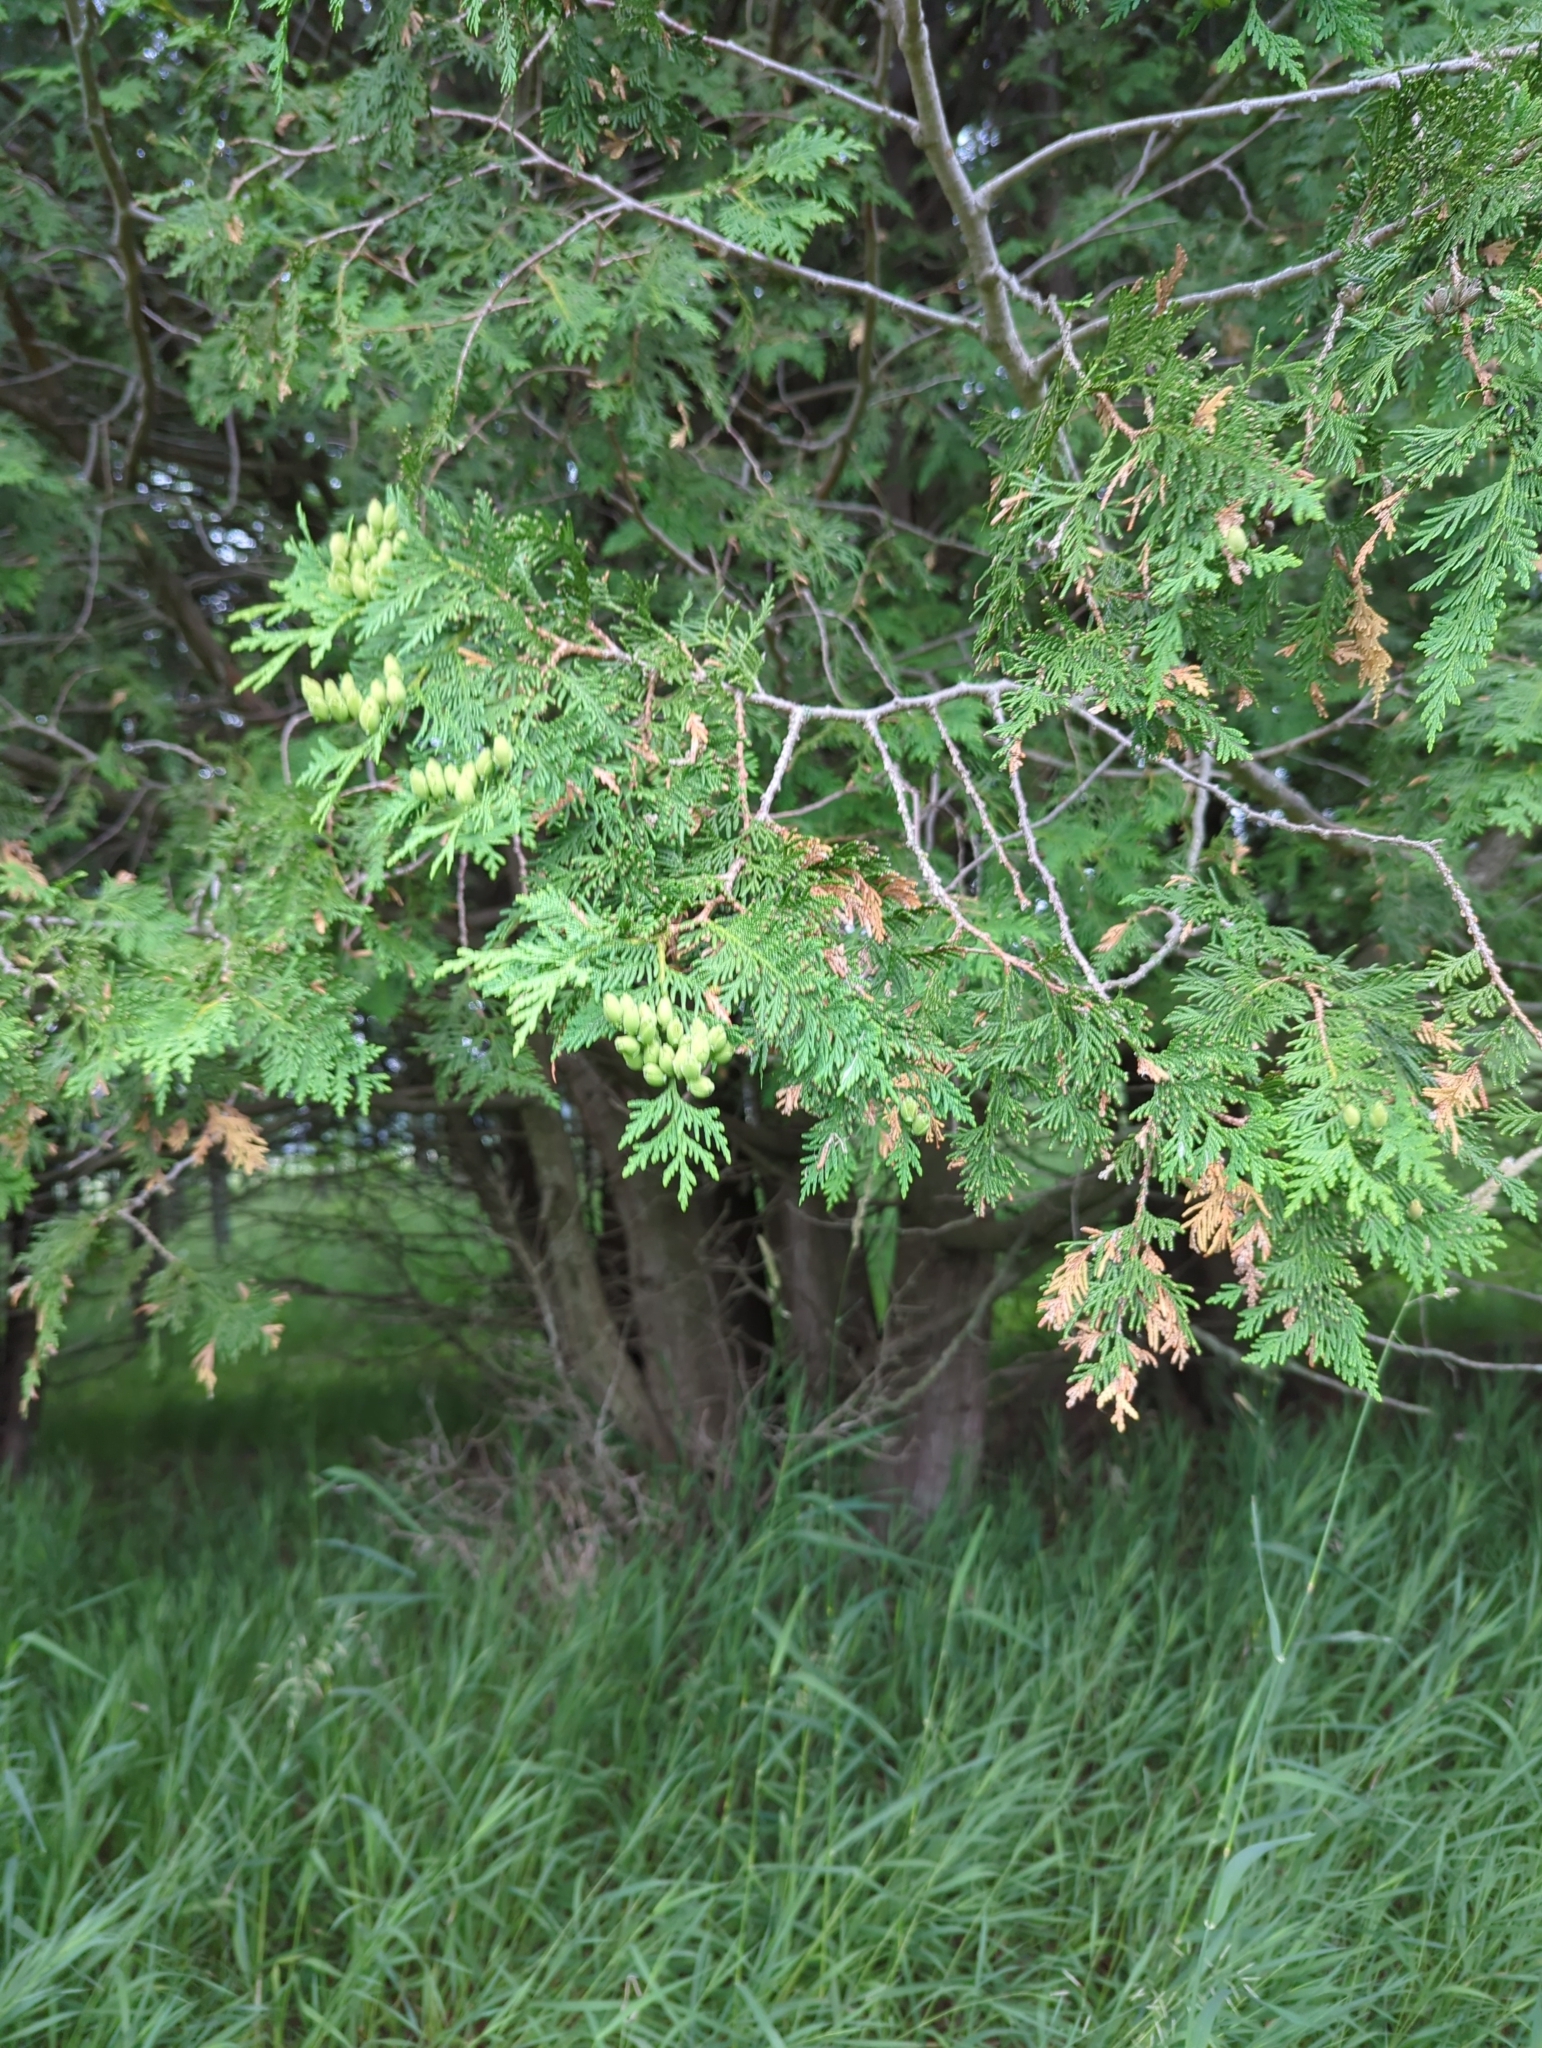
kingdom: Plantae
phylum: Tracheophyta
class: Pinopsida
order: Pinales
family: Cupressaceae
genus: Thuja
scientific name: Thuja occidentalis
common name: Northern white-cedar
